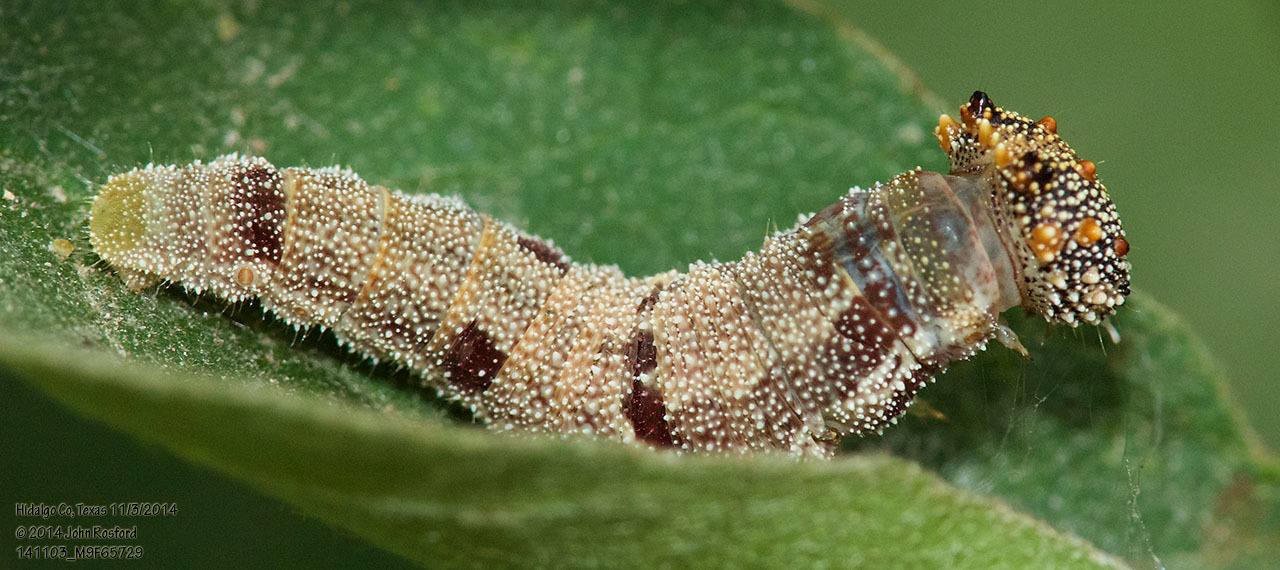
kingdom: Animalia
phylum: Arthropoda
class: Insecta
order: Lepidoptera
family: Nymphalidae
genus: Anaea
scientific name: Anaea aidea
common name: Tropical leafwing
